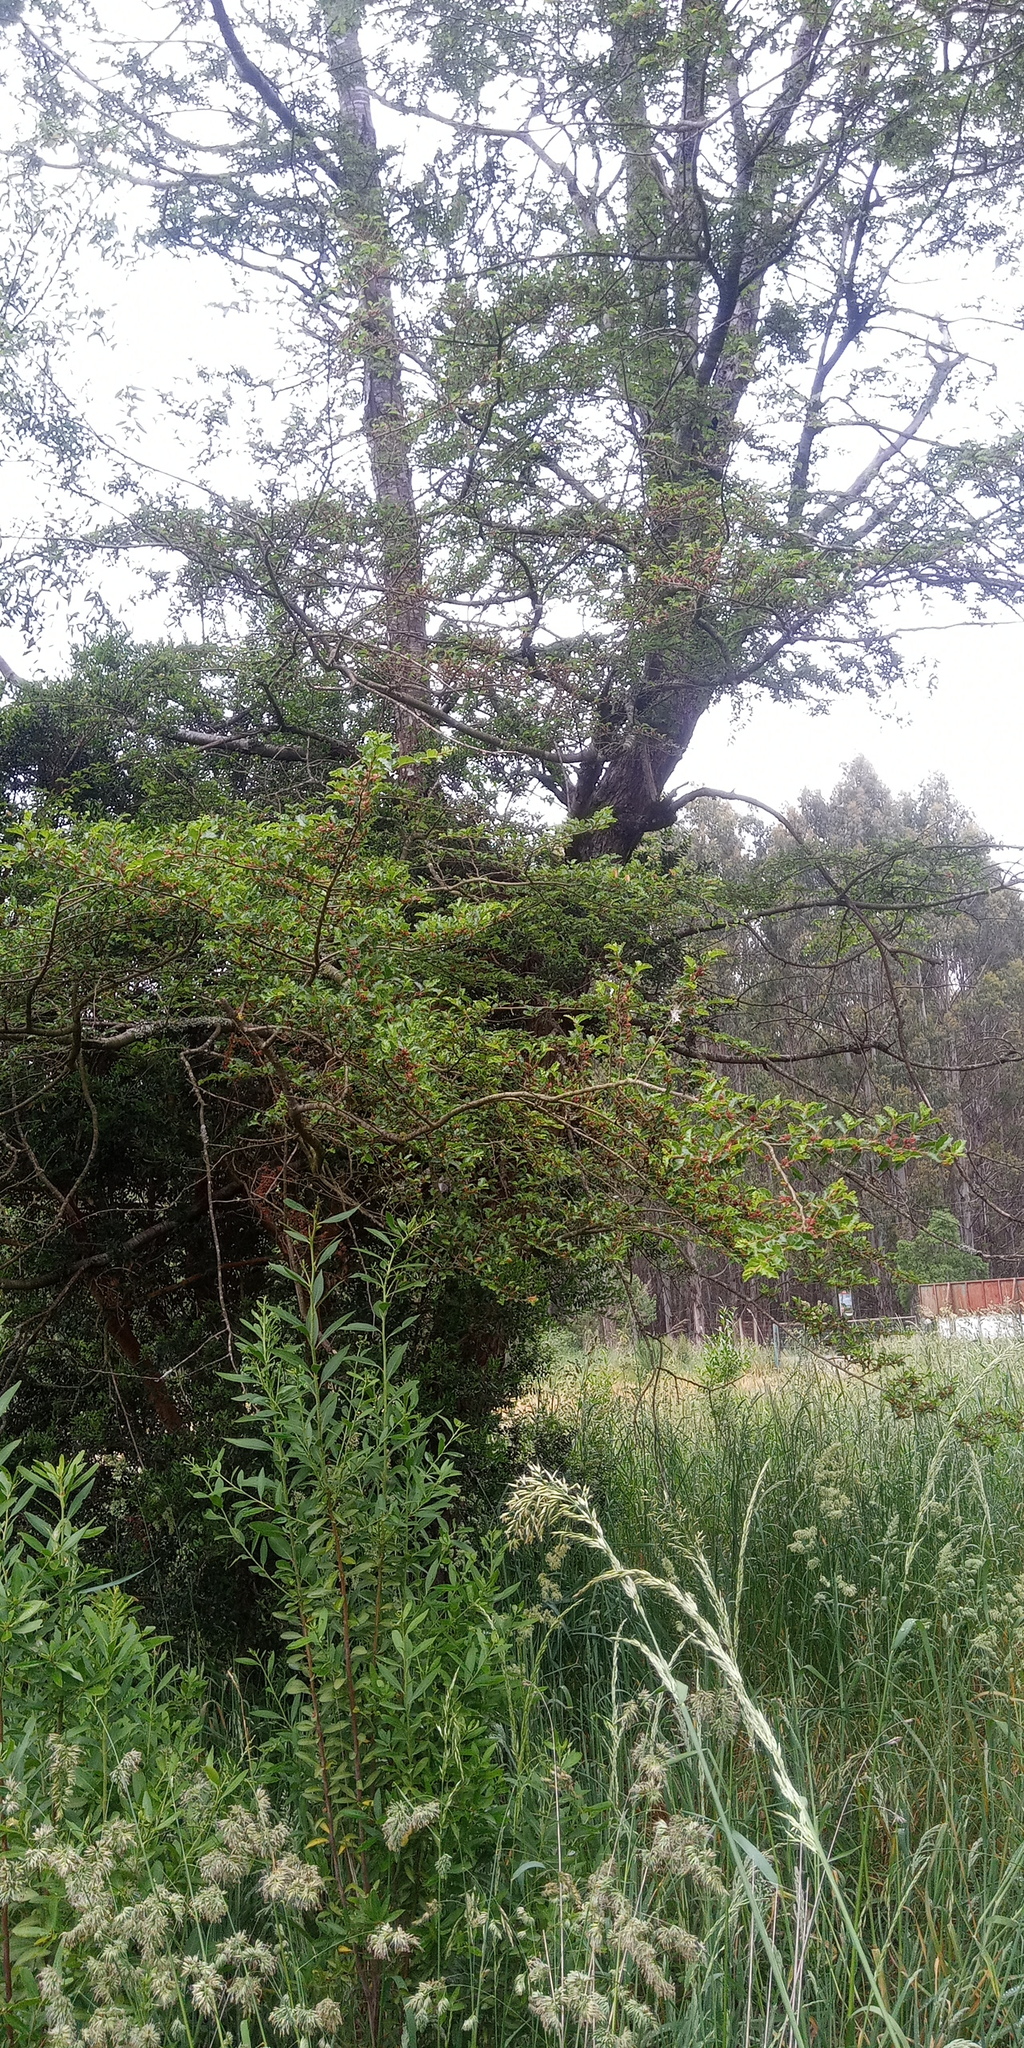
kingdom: Plantae
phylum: Tracheophyta
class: Magnoliopsida
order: Fagales
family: Nothofagaceae
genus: Nothofagus
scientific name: Nothofagus antarctica
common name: Antarctic beech
